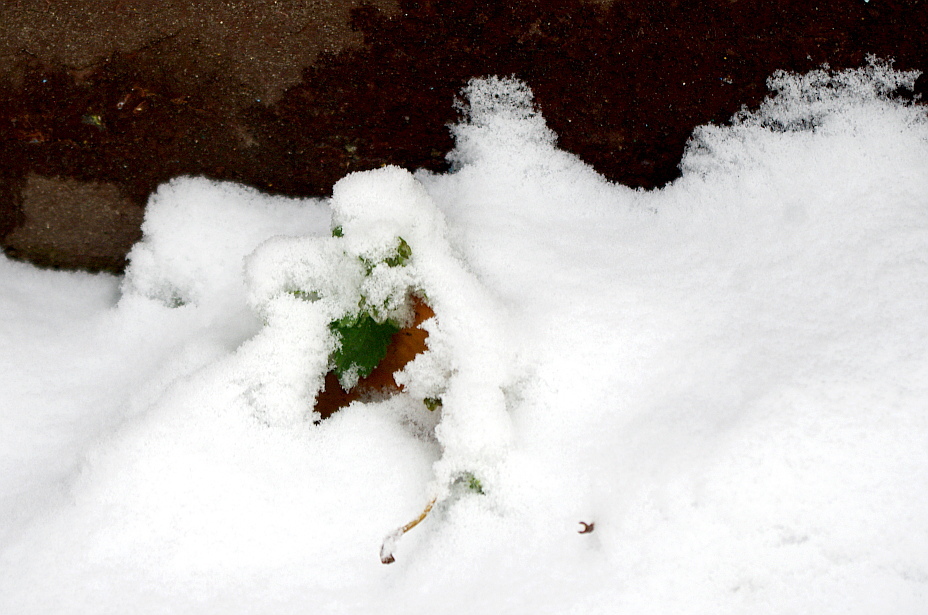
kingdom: Plantae
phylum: Tracheophyta
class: Magnoliopsida
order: Lamiales
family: Lamiaceae
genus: Lamium
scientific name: Lamium album
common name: White dead-nettle
